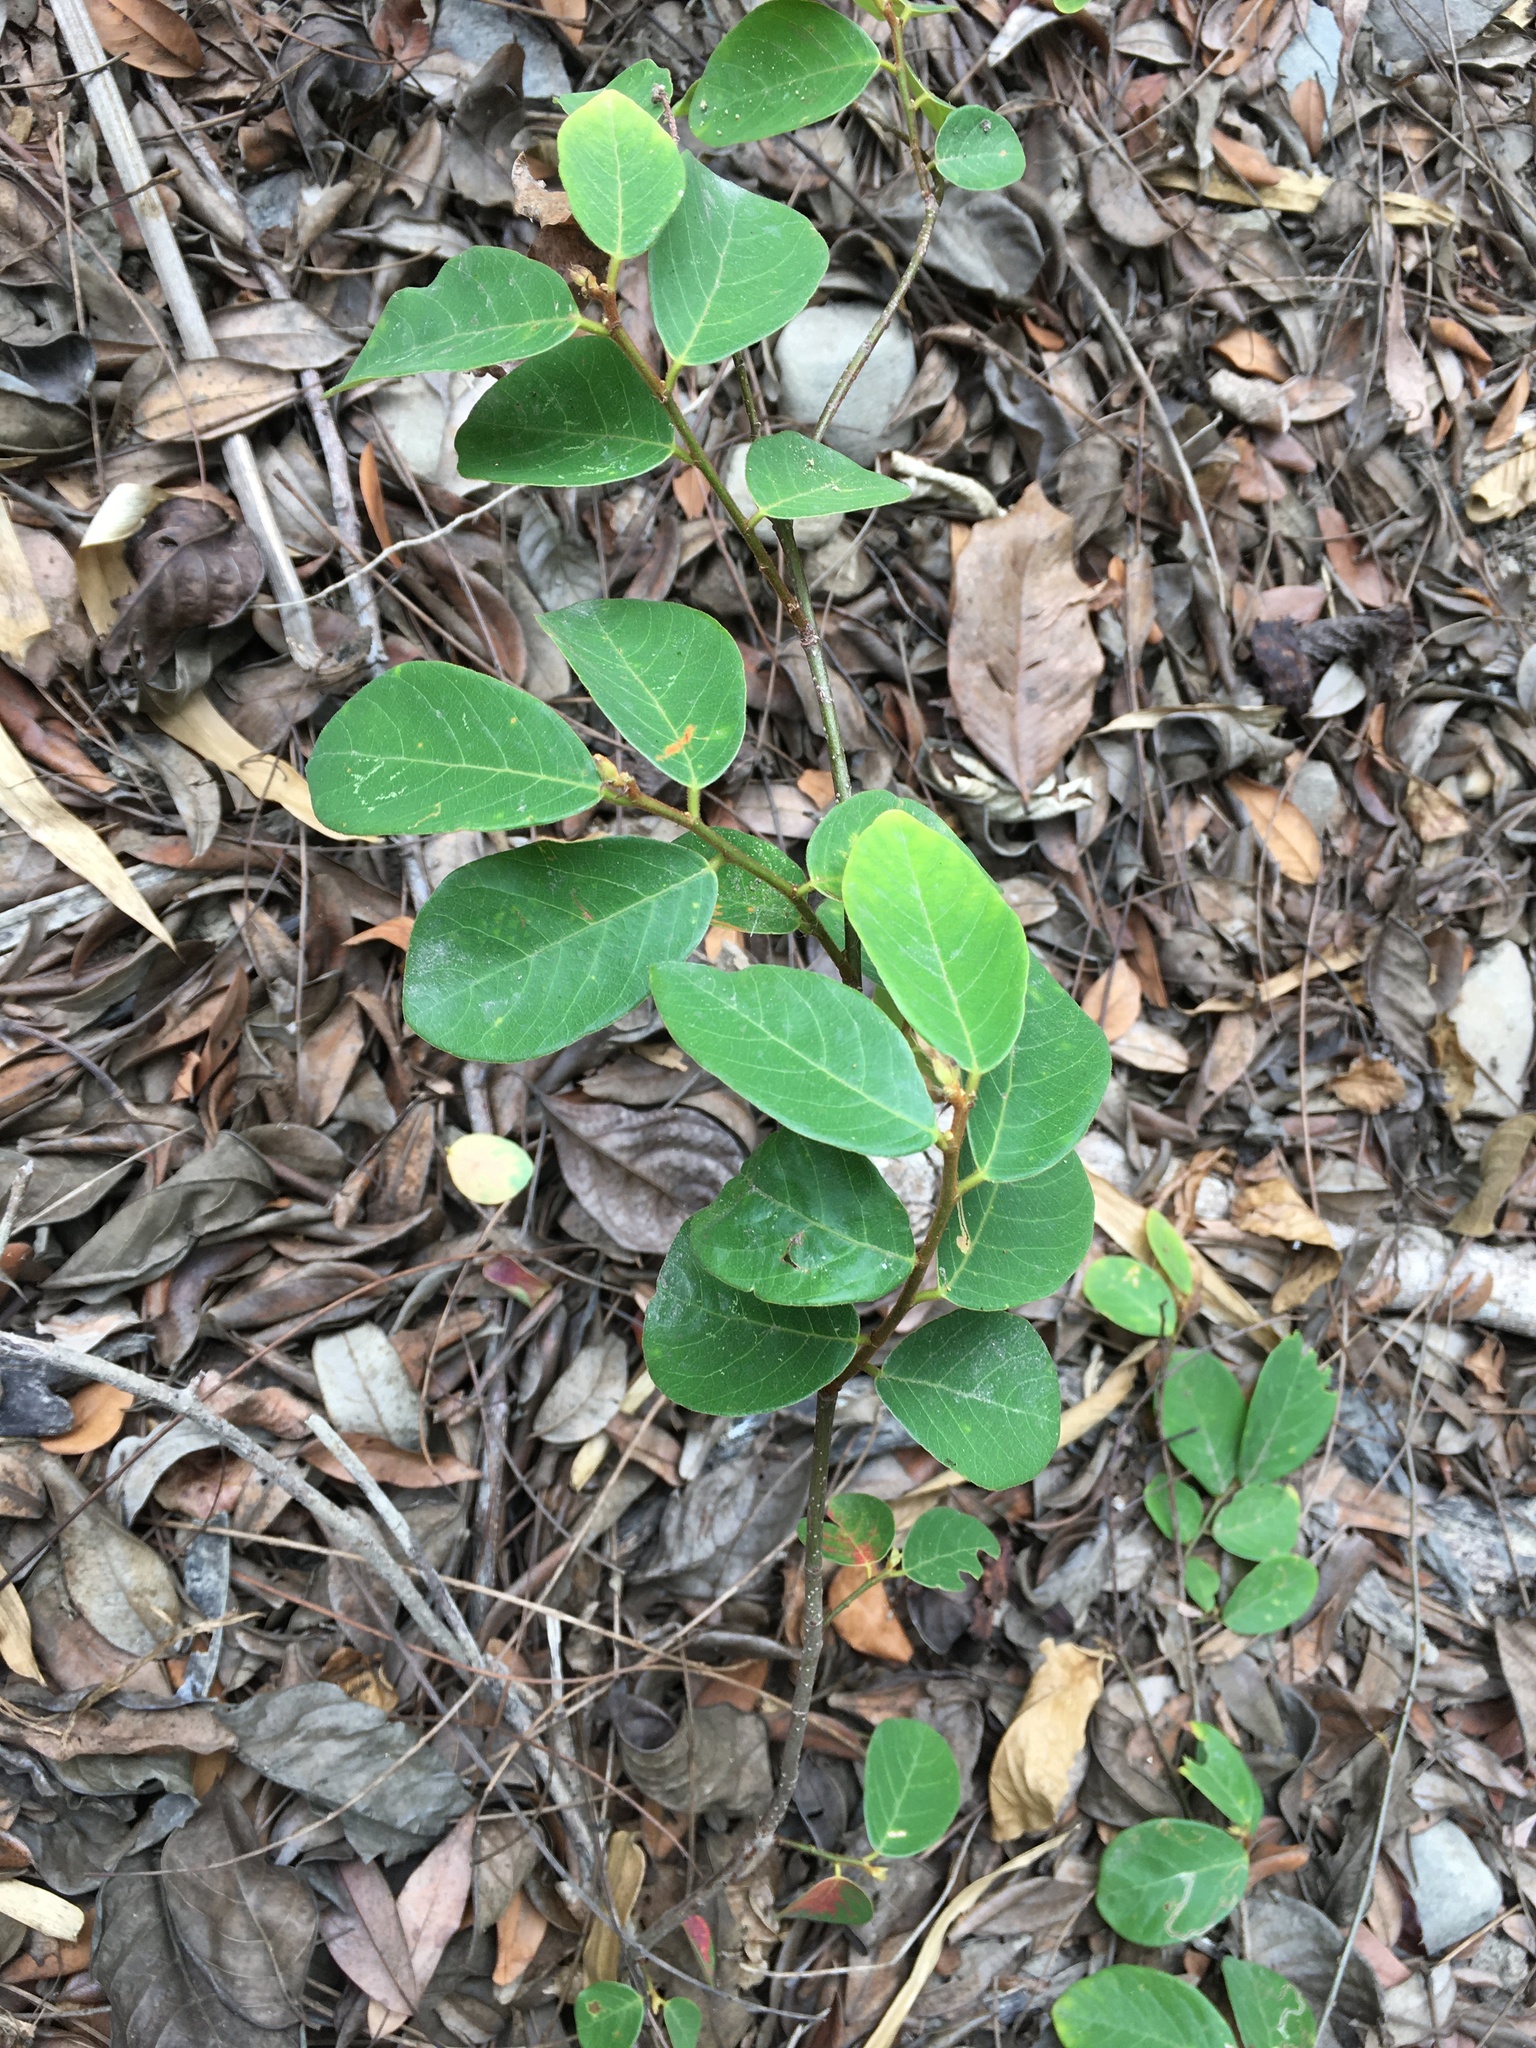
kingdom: Plantae
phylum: Tracheophyta
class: Magnoliopsida
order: Malpighiales
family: Phyllanthaceae
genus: Bridelia
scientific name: Bridelia tomentosa
